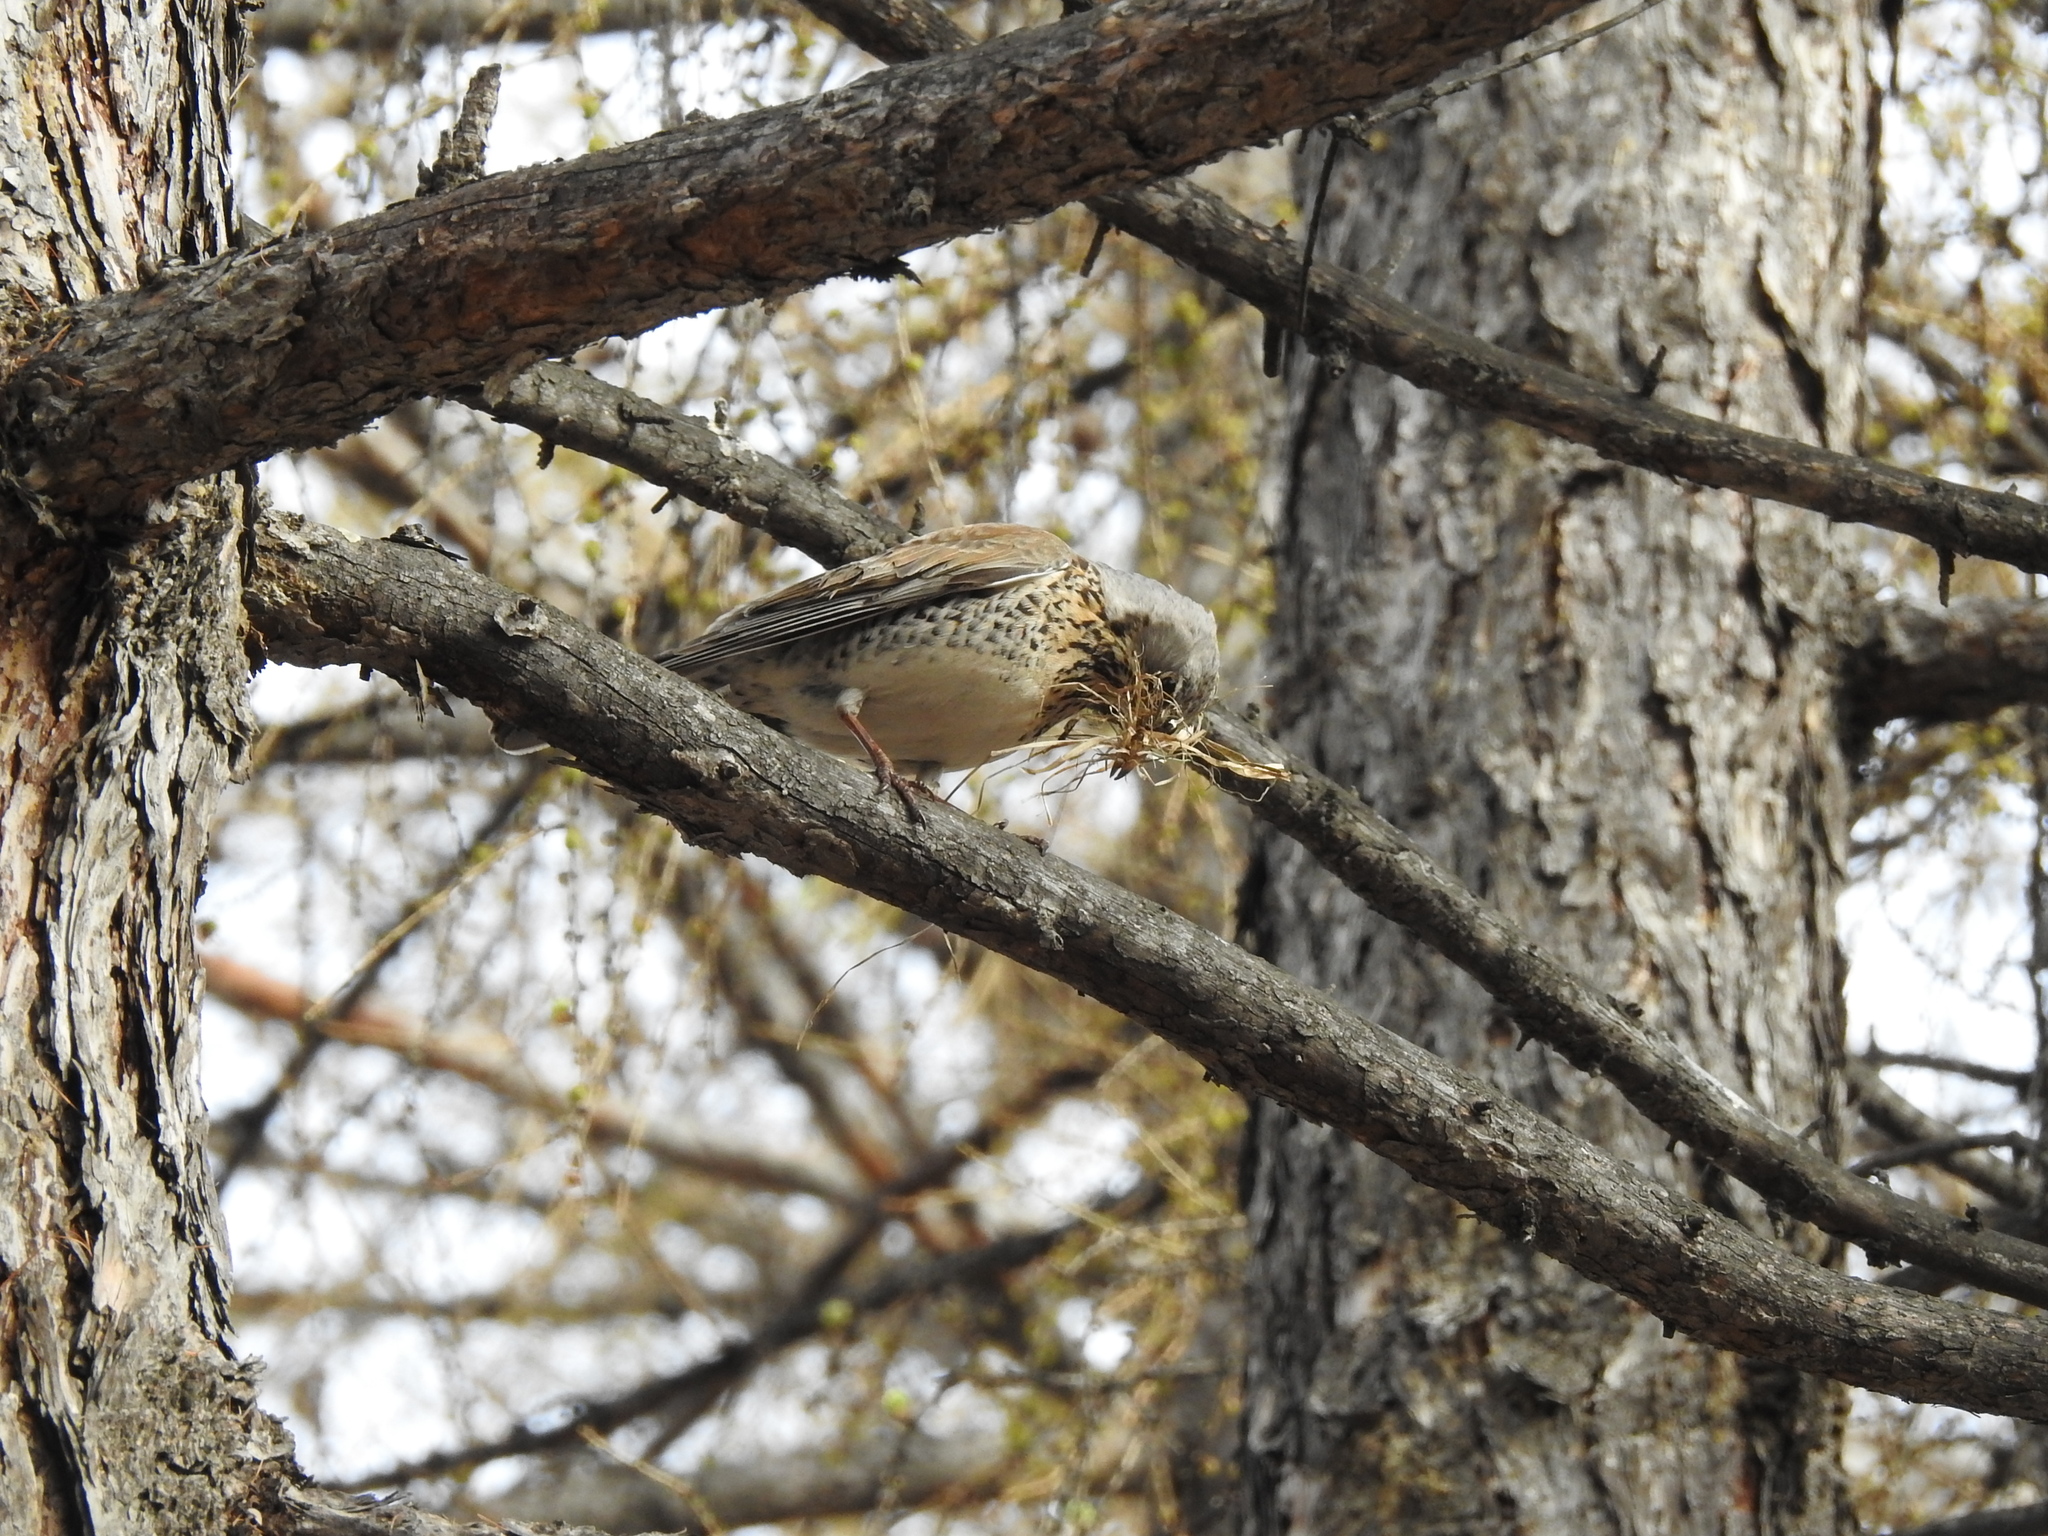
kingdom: Animalia
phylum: Chordata
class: Aves
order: Passeriformes
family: Turdidae
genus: Turdus
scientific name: Turdus pilaris
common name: Fieldfare
